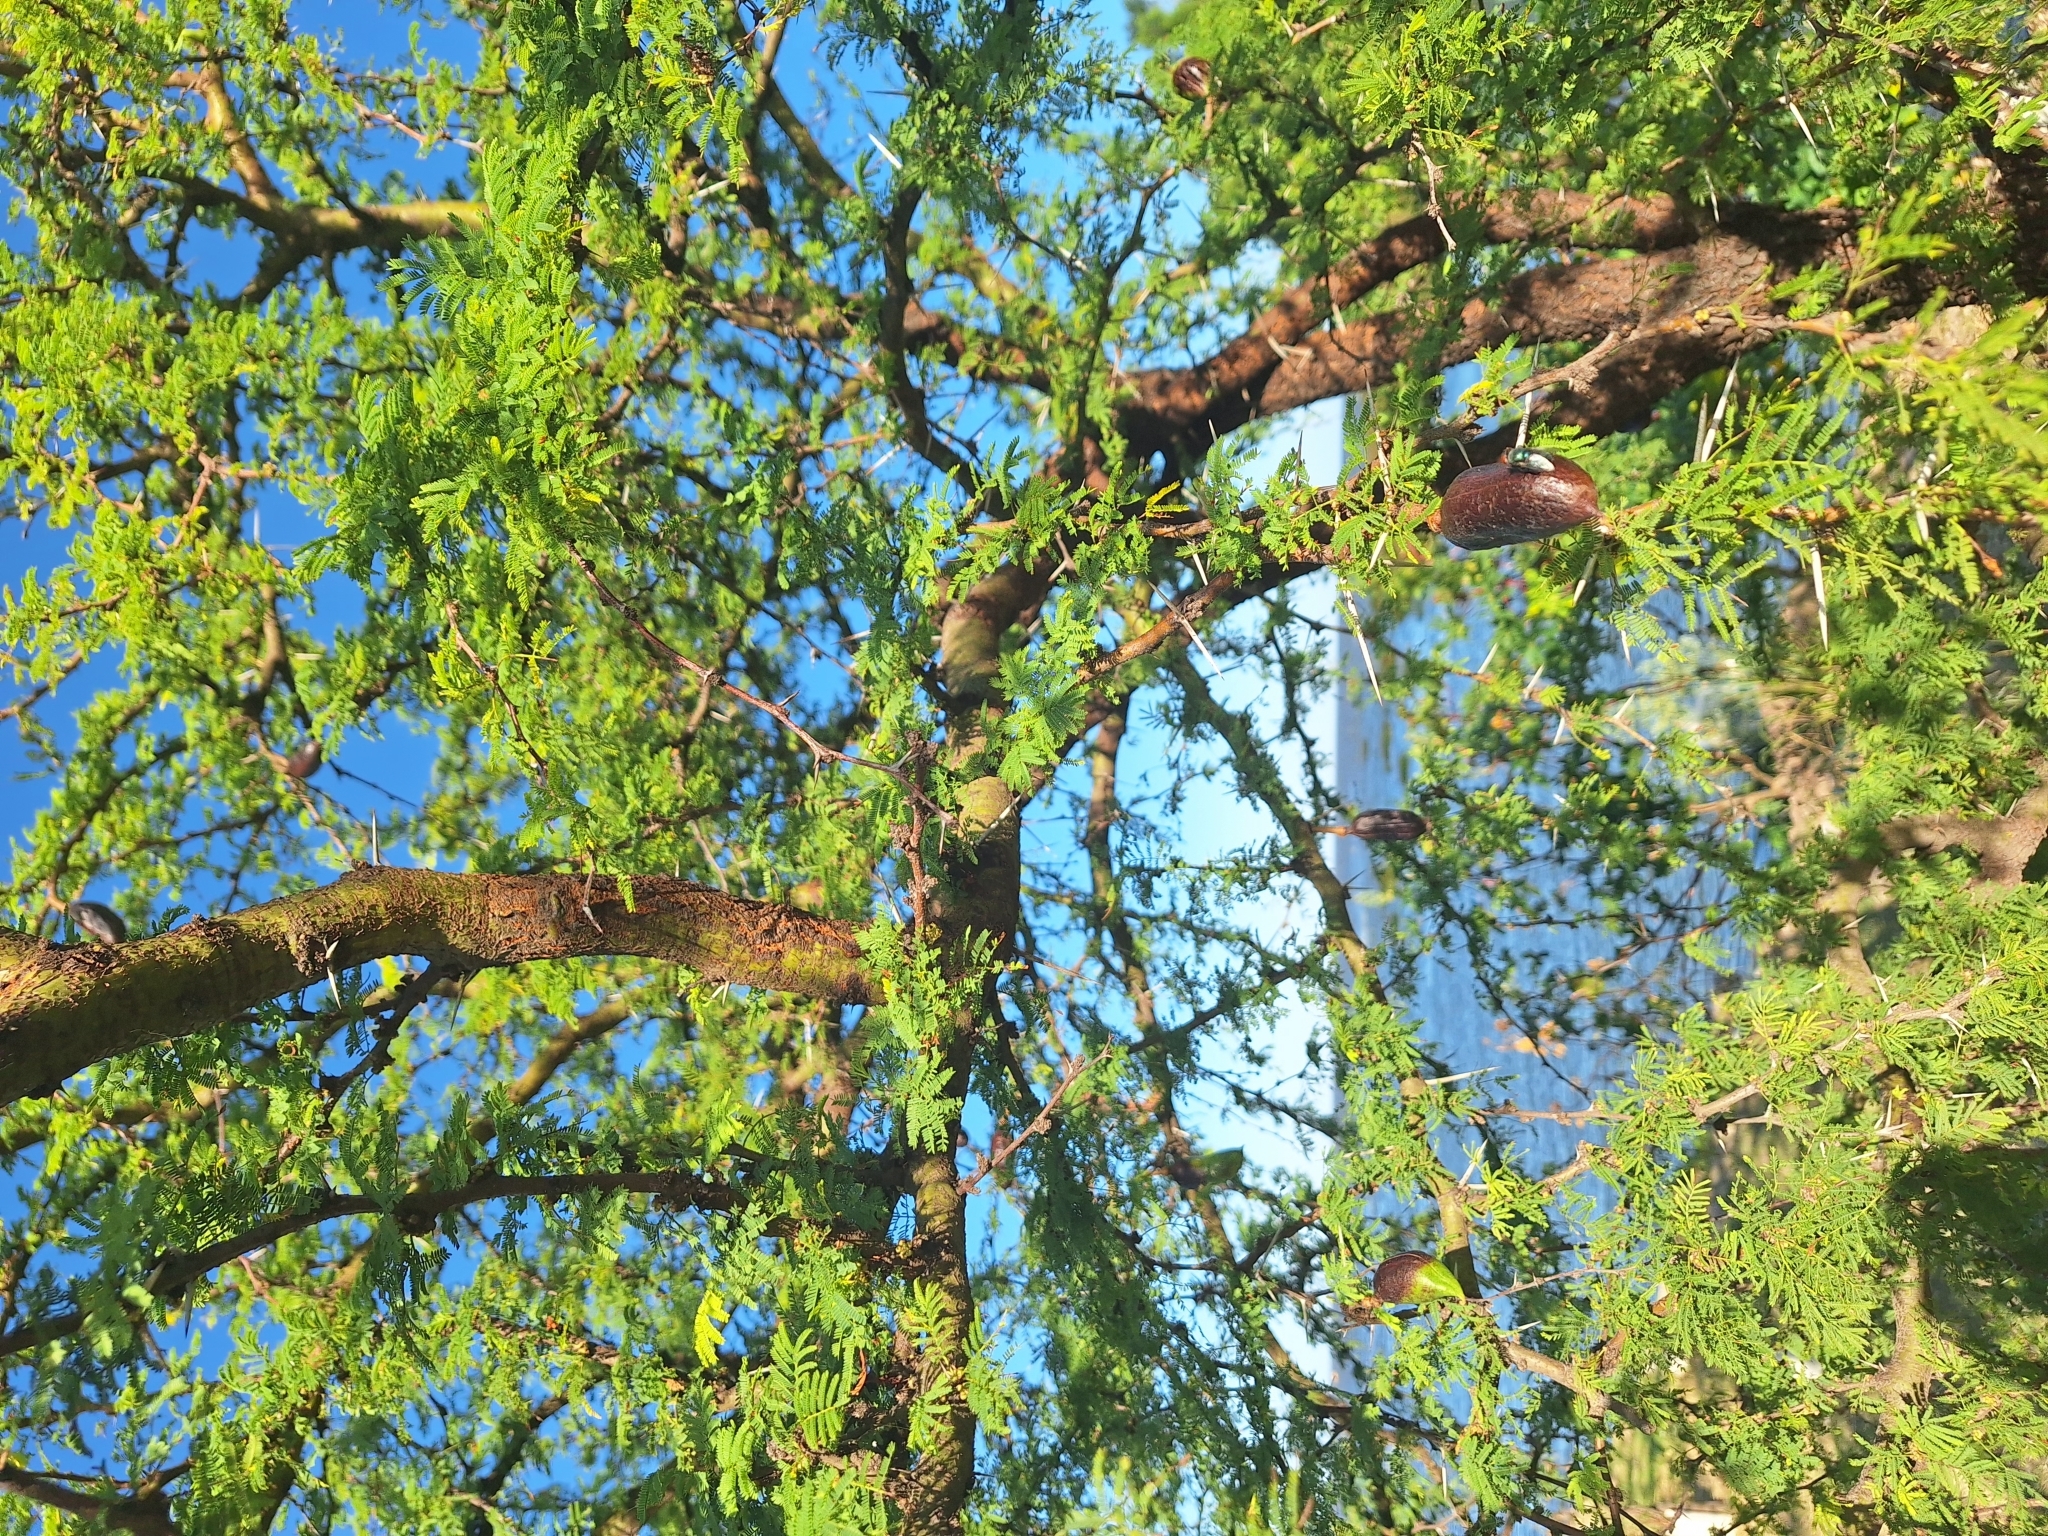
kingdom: Plantae
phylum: Tracheophyta
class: Magnoliopsida
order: Fabales
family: Fabaceae
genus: Vachellia
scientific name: Vachellia caven
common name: Roman cassie
